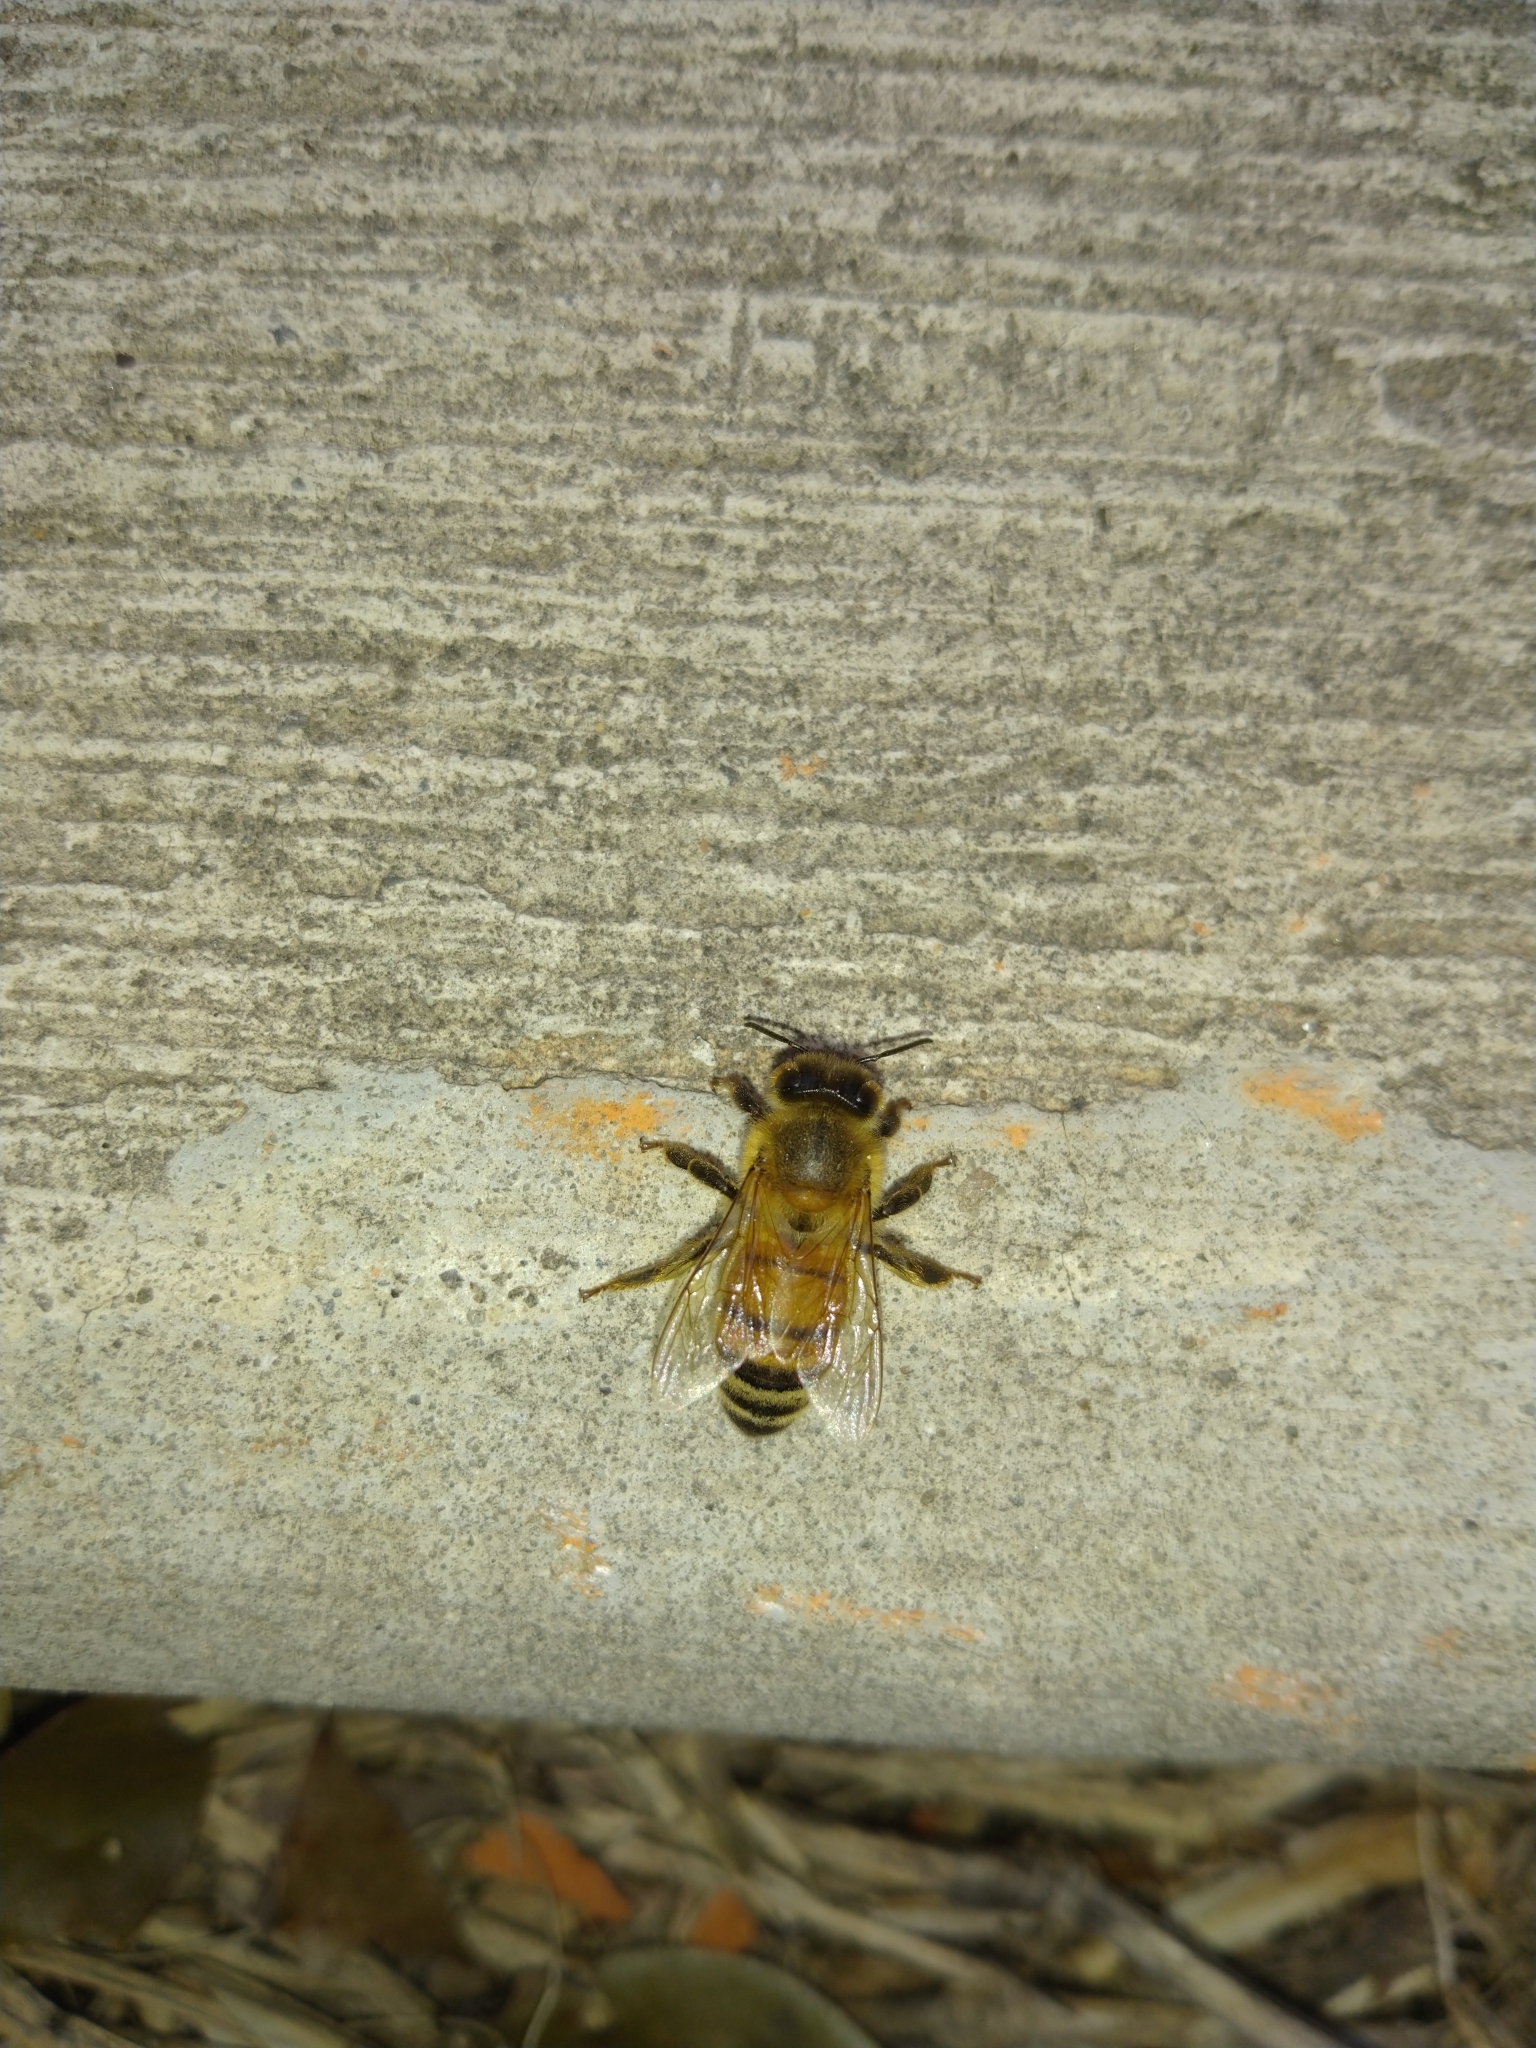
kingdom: Animalia
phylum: Arthropoda
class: Insecta
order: Hymenoptera
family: Apidae
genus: Apis
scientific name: Apis mellifera
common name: Honey bee
